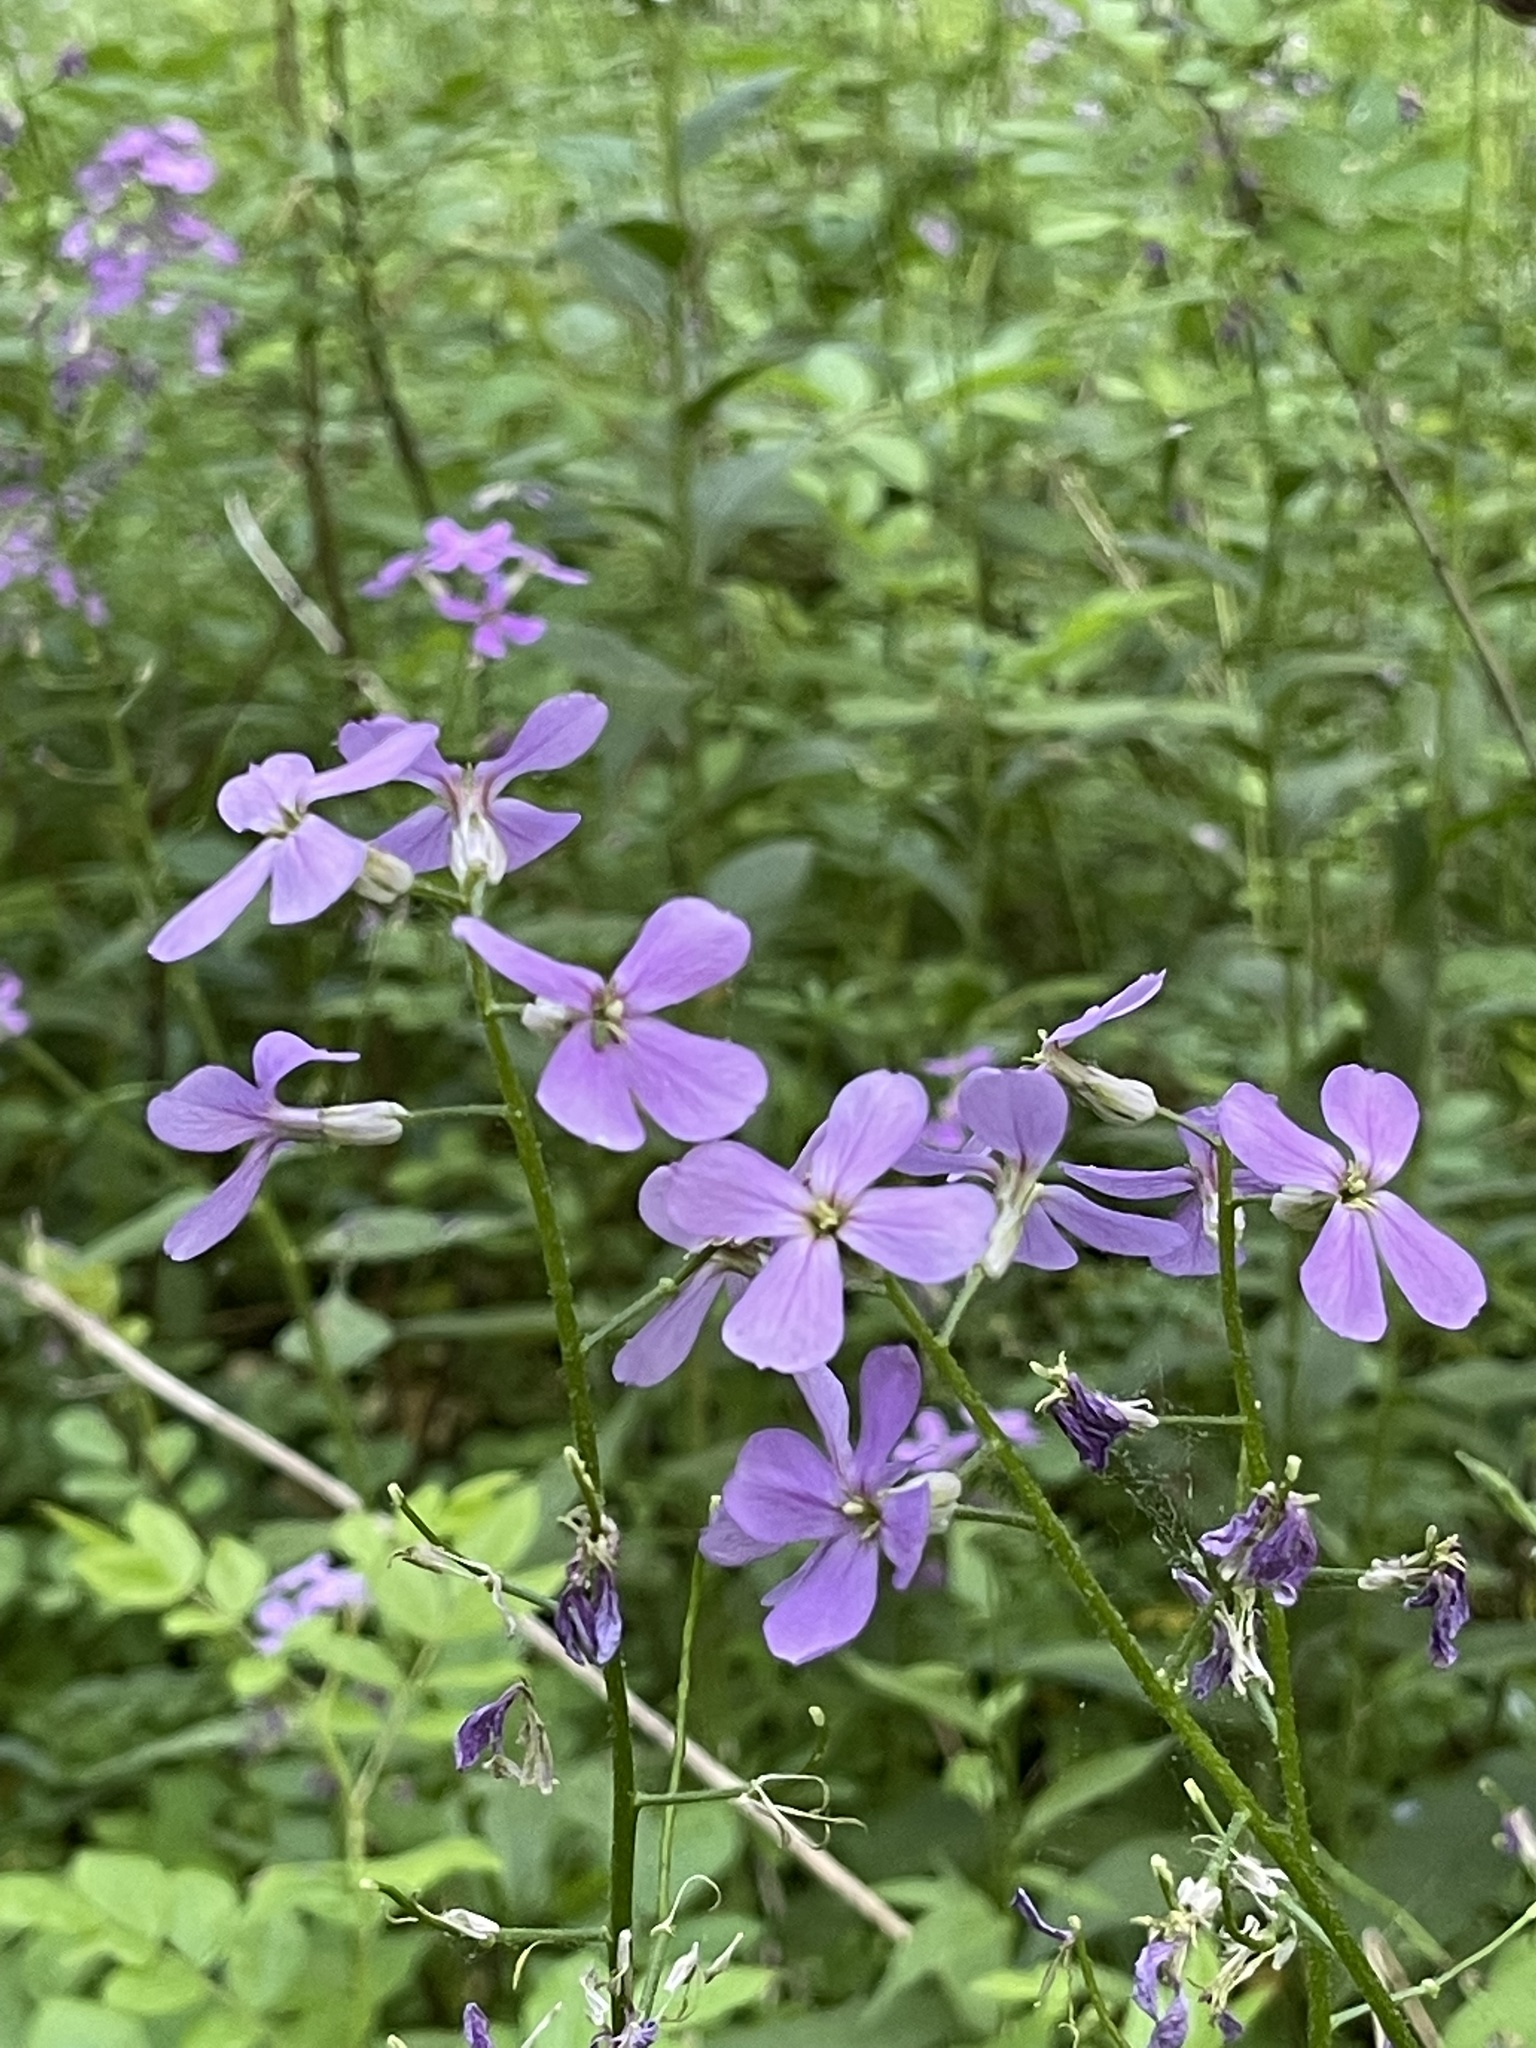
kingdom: Plantae
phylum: Tracheophyta
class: Magnoliopsida
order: Brassicales
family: Brassicaceae
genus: Hesperis
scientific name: Hesperis matronalis
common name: Dame's-violet
